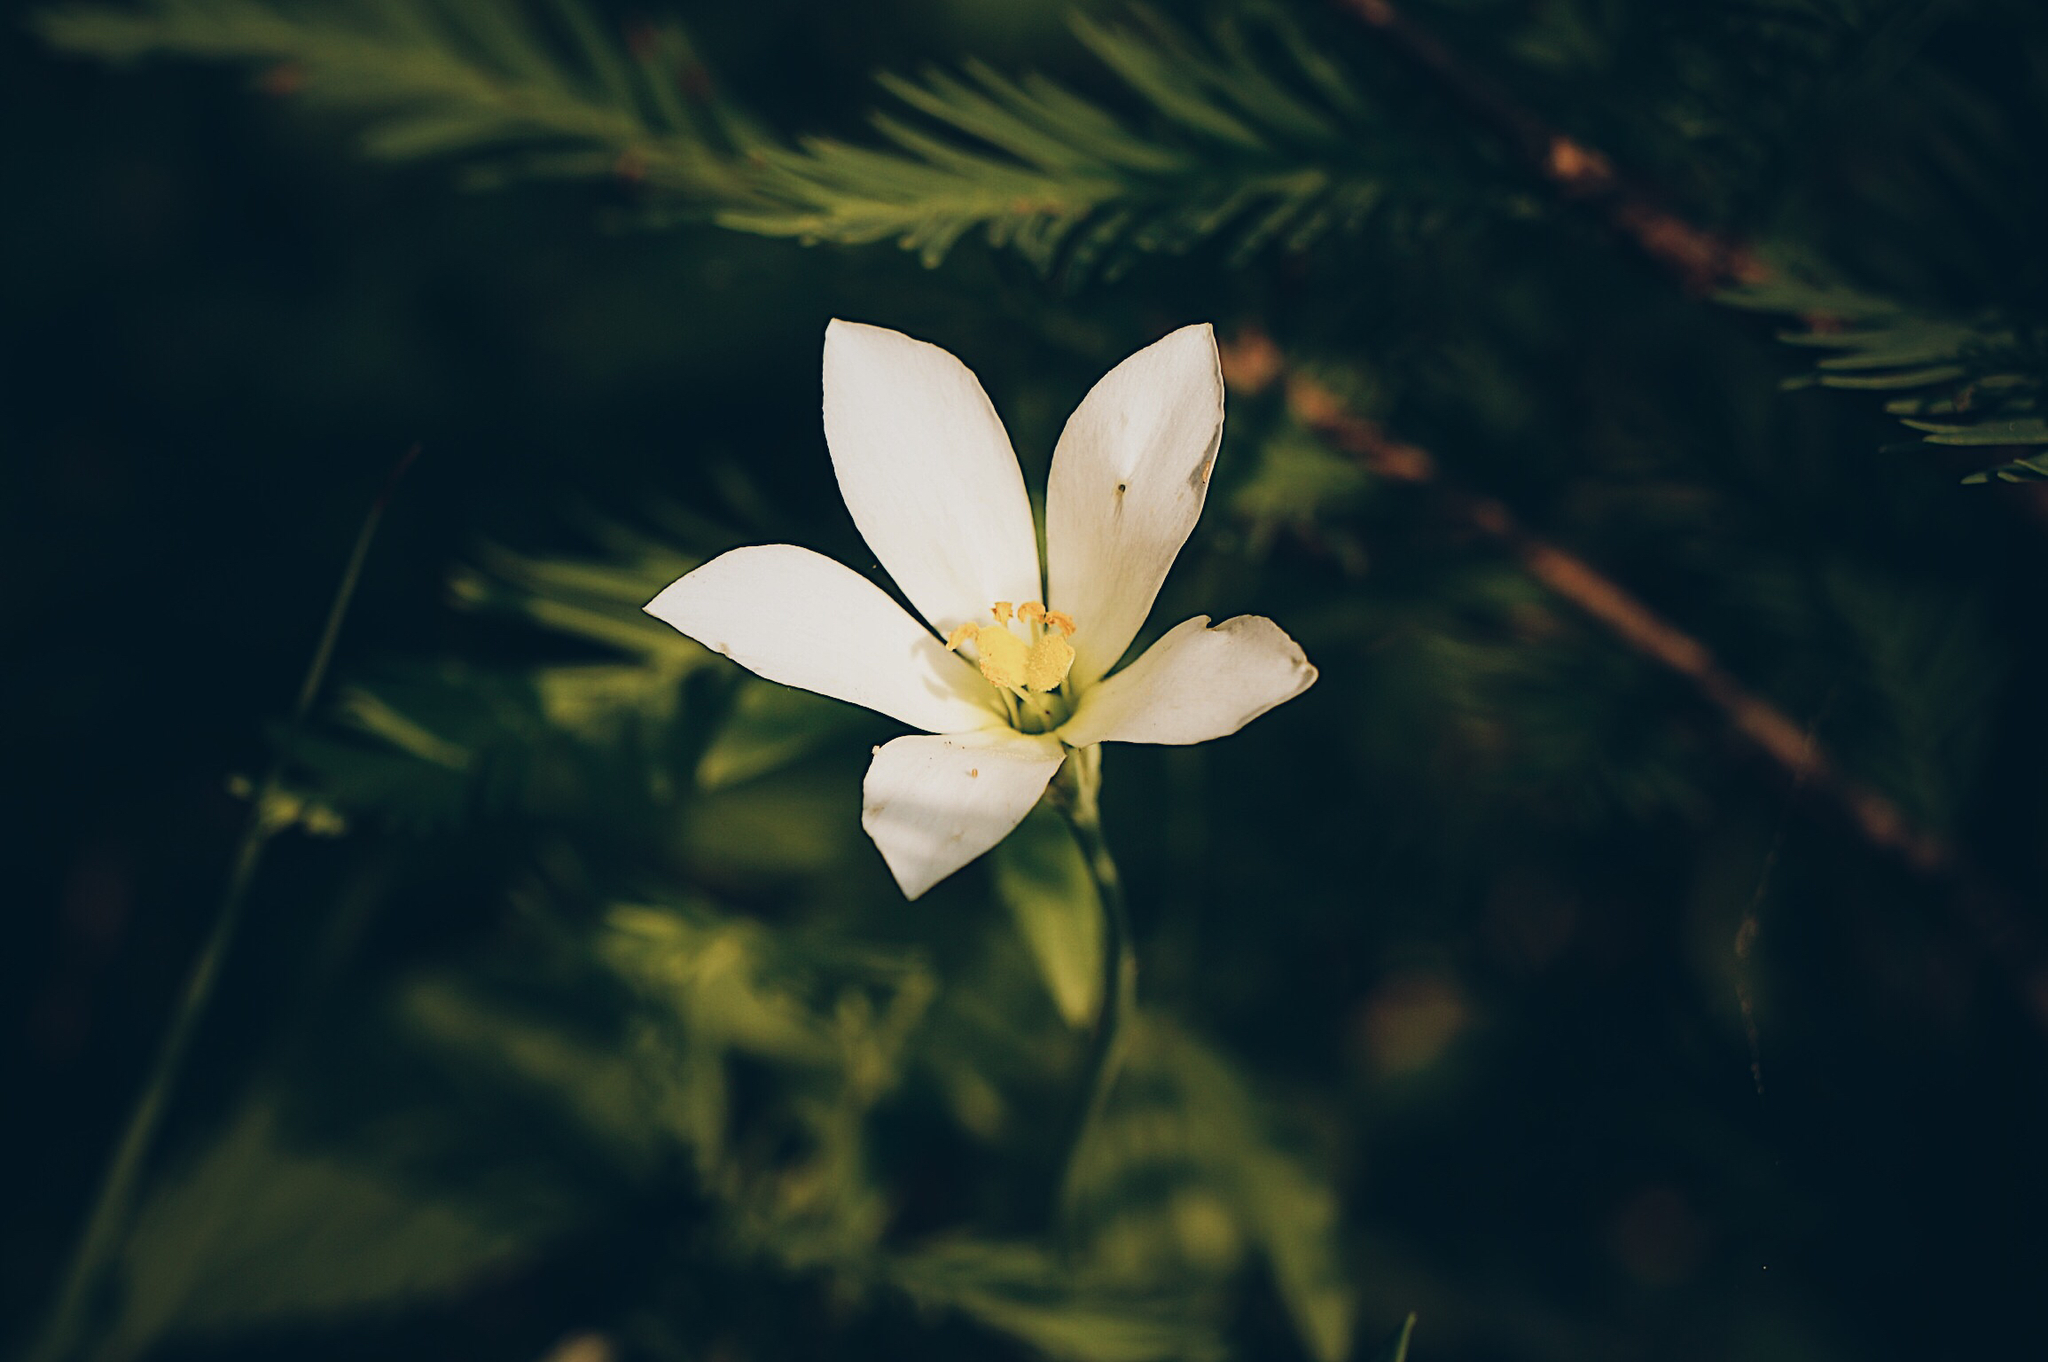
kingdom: Plantae
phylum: Tracheophyta
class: Magnoliopsida
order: Gentianales
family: Gentianaceae
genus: Eustoma
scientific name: Eustoma exaltatum
